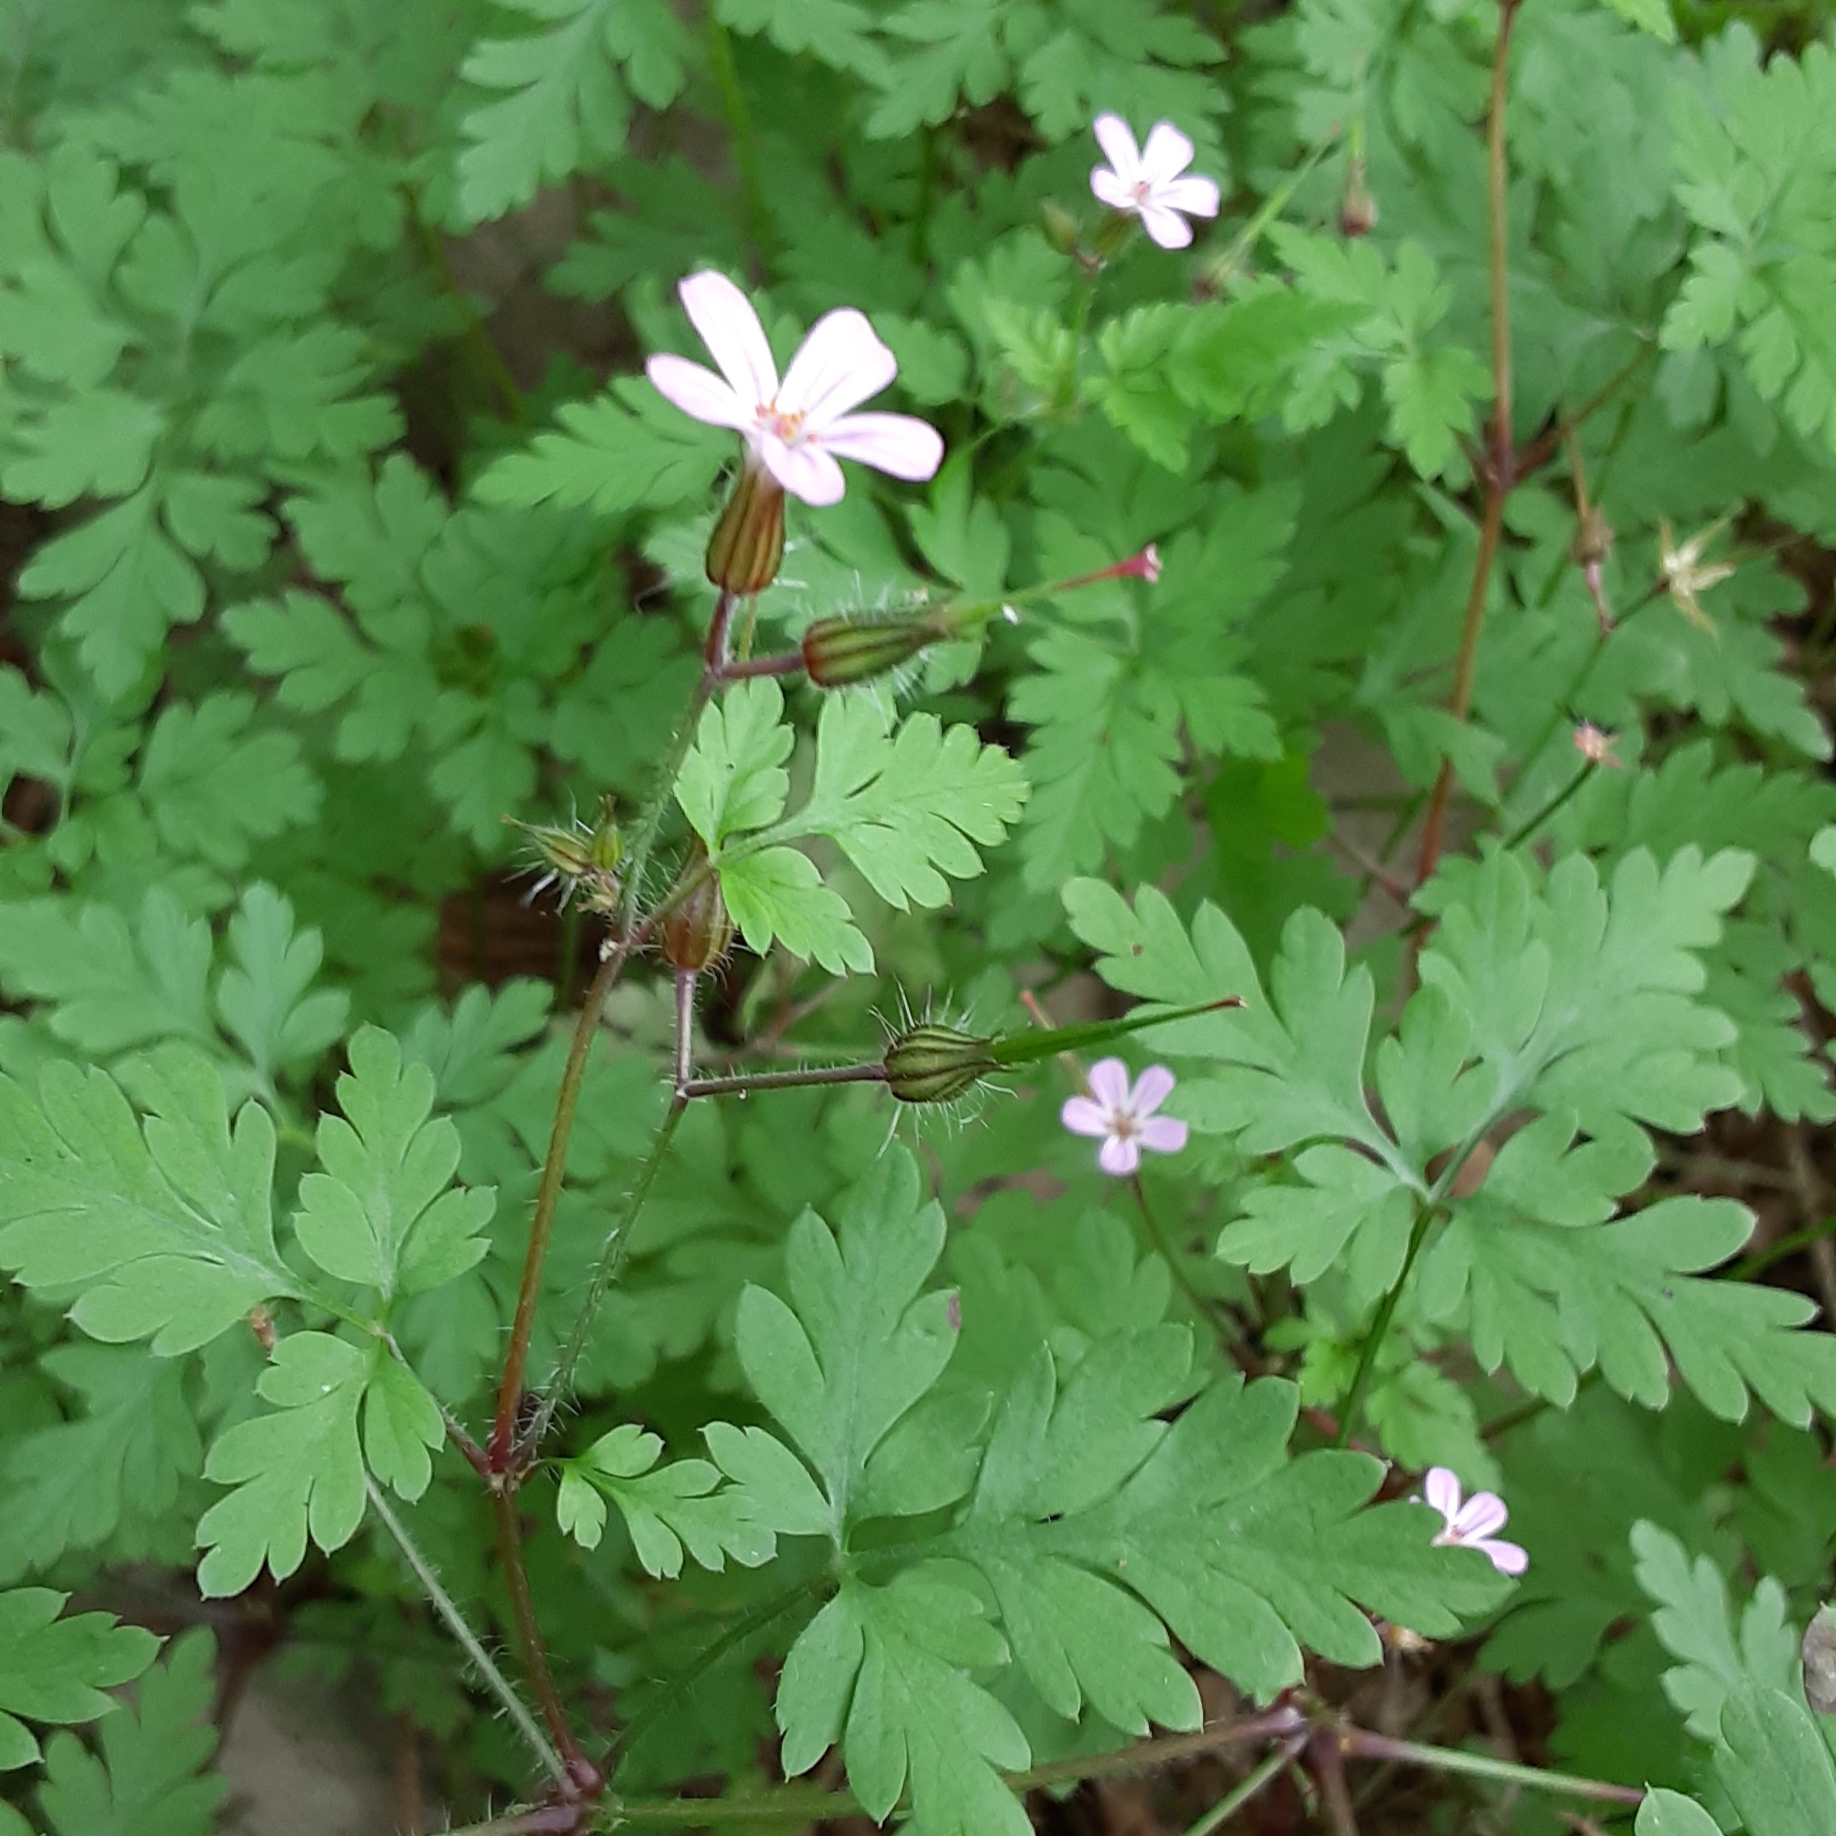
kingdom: Plantae
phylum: Tracheophyta
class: Magnoliopsida
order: Geraniales
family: Geraniaceae
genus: Geranium
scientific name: Geranium robertianum
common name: Herb-robert
